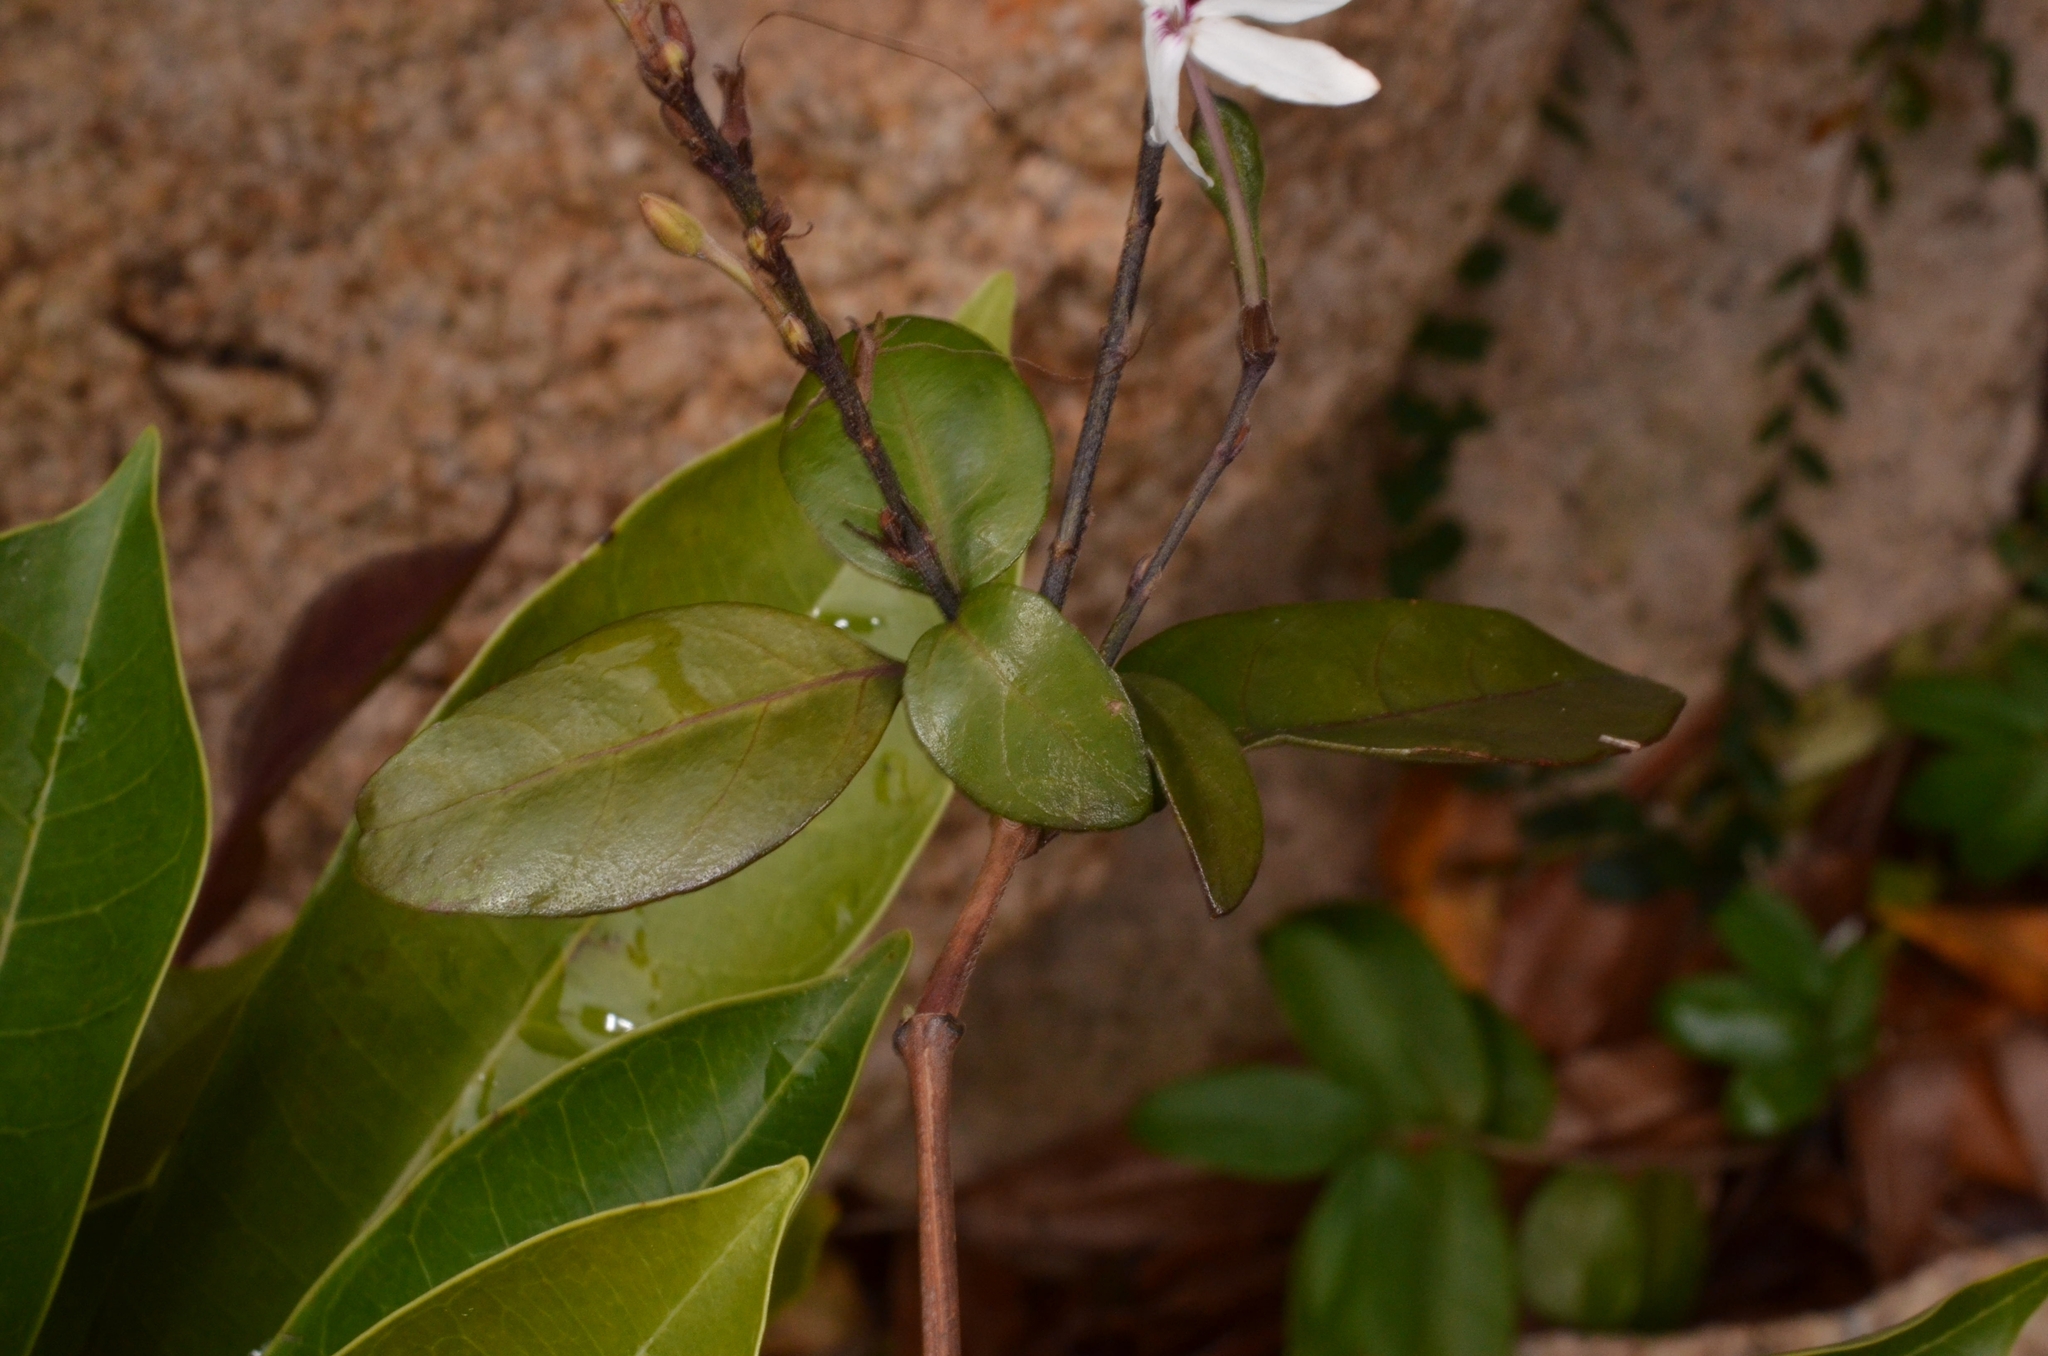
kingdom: Plantae
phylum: Tracheophyta
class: Magnoliopsida
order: Lamiales
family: Acanthaceae
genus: Pseuderanthemum
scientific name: Pseuderanthemum bicolor
